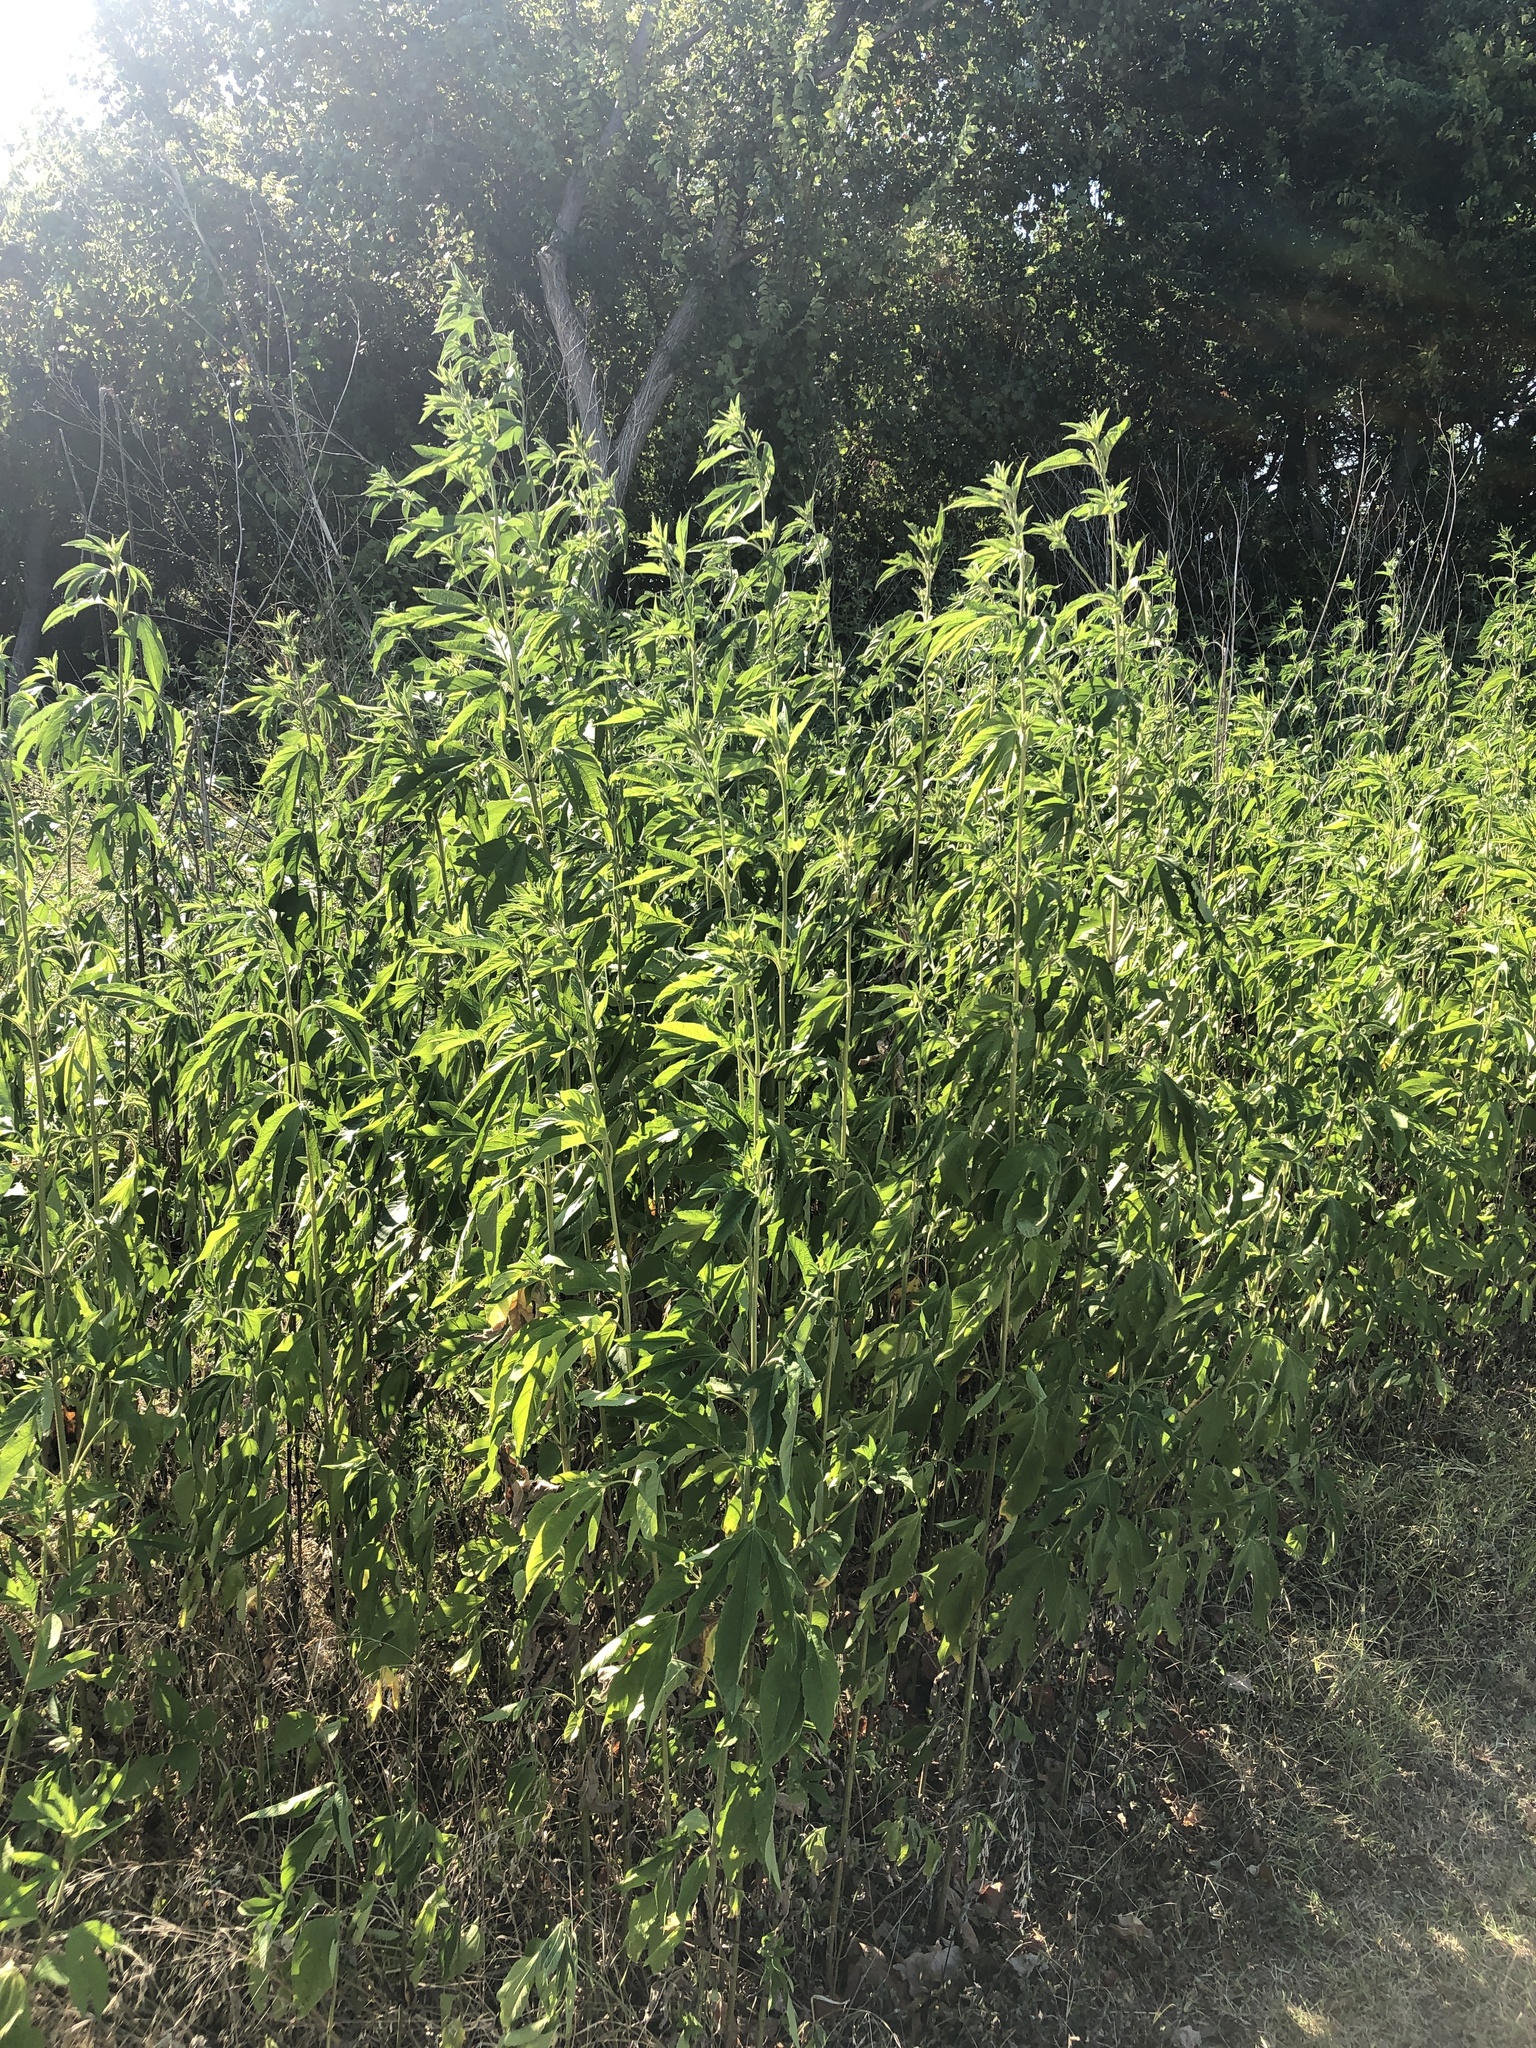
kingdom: Plantae
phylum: Tracheophyta
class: Magnoliopsida
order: Asterales
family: Asteraceae
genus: Ambrosia
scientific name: Ambrosia trifida
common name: Giant ragweed
